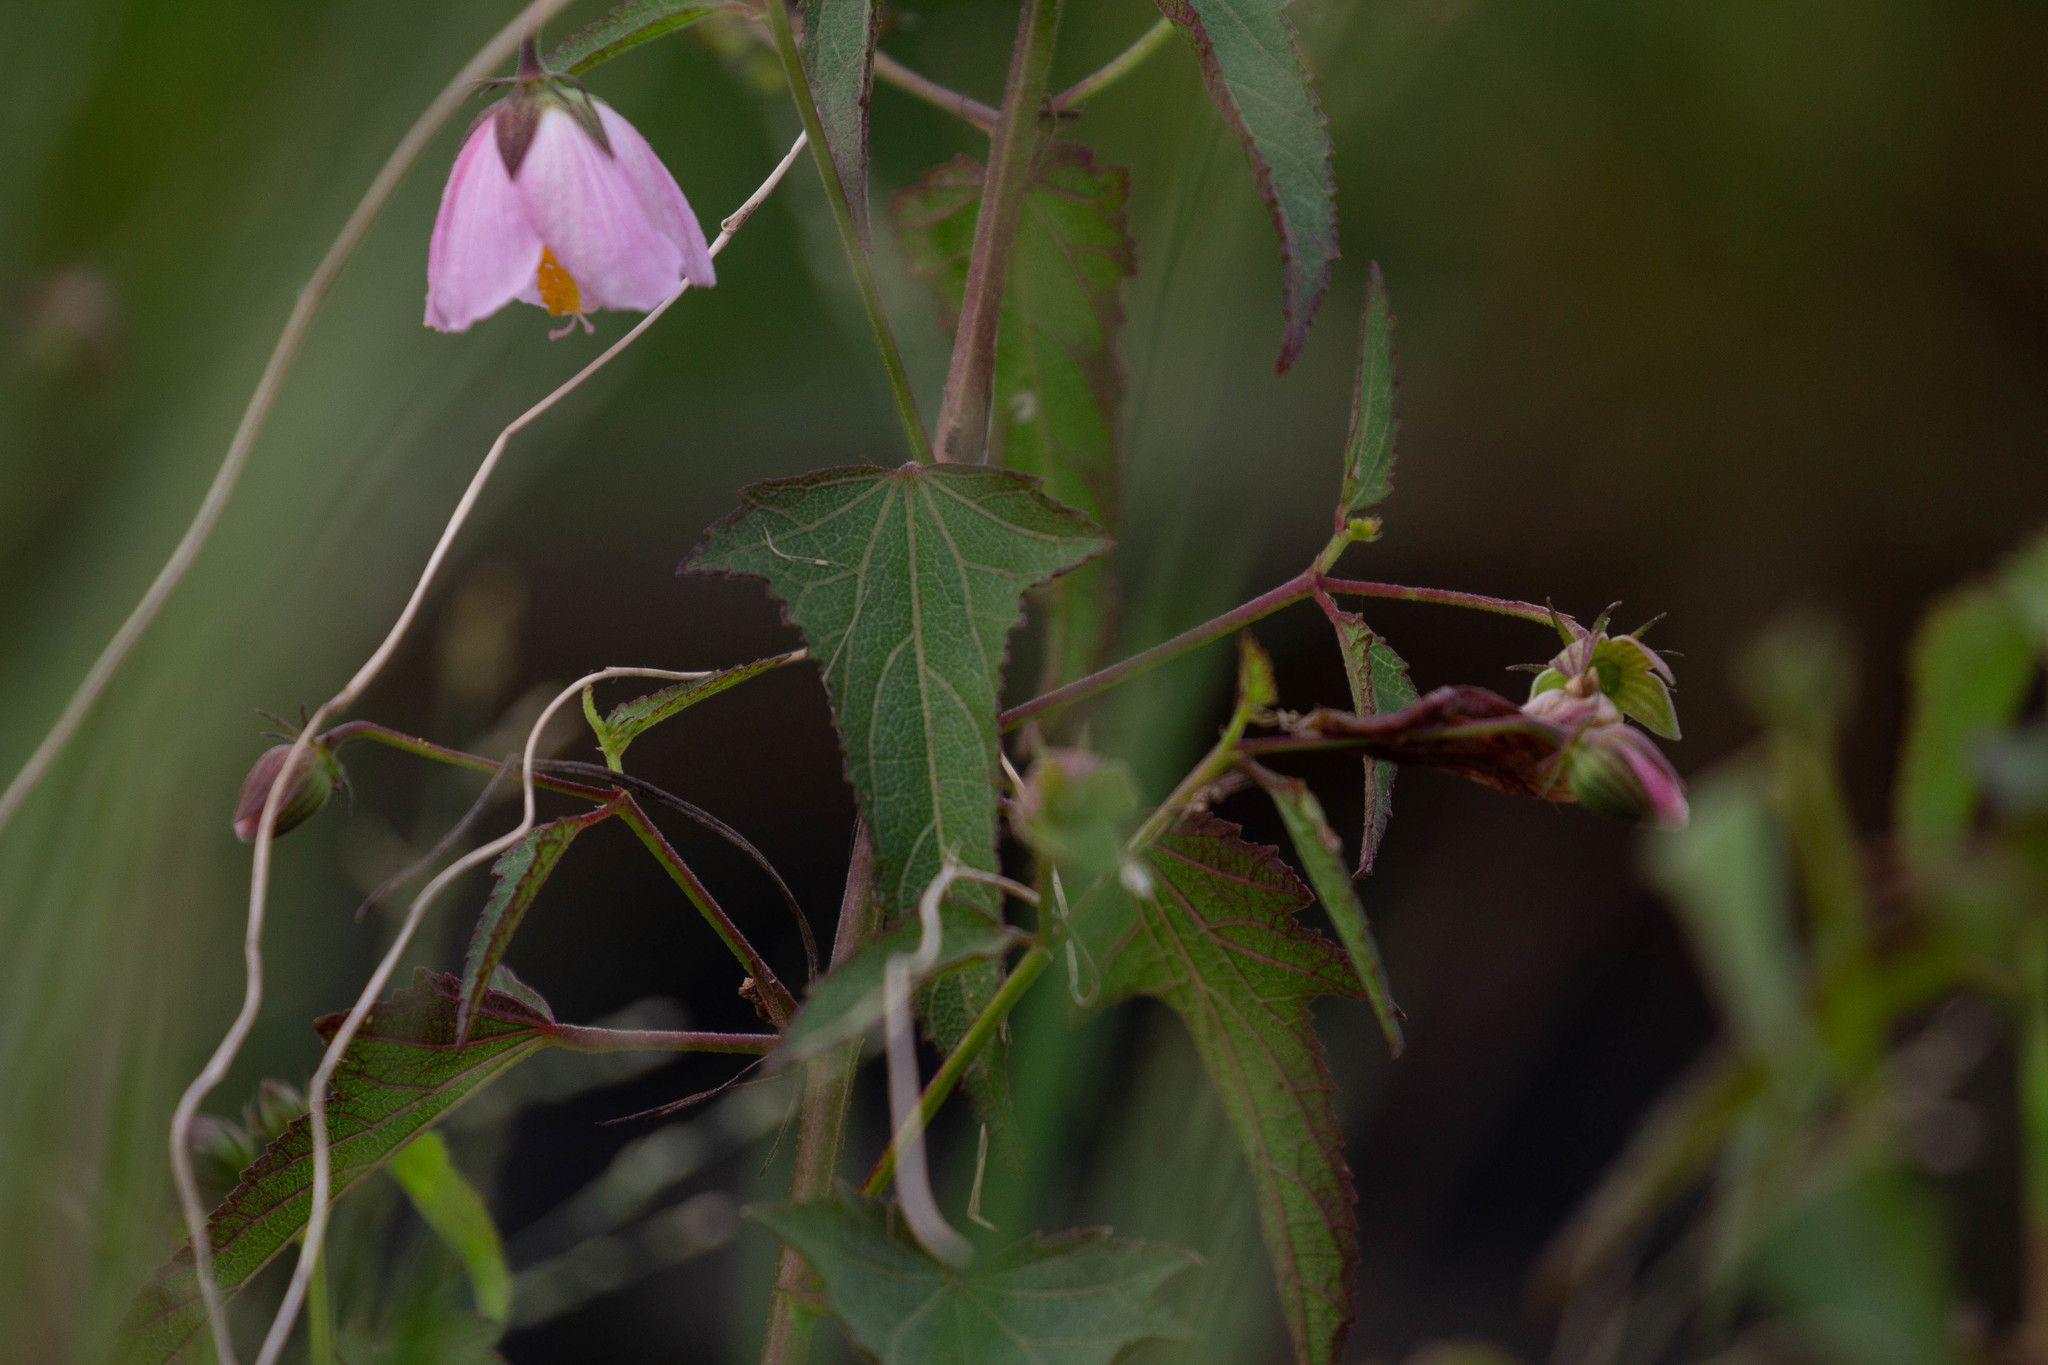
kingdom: Plantae
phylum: Tracheophyta
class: Magnoliopsida
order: Malvales
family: Malvaceae
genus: Kosteletzkya
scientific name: Kosteletzkya pentacarpos
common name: Virginia saltmarsh mallow
